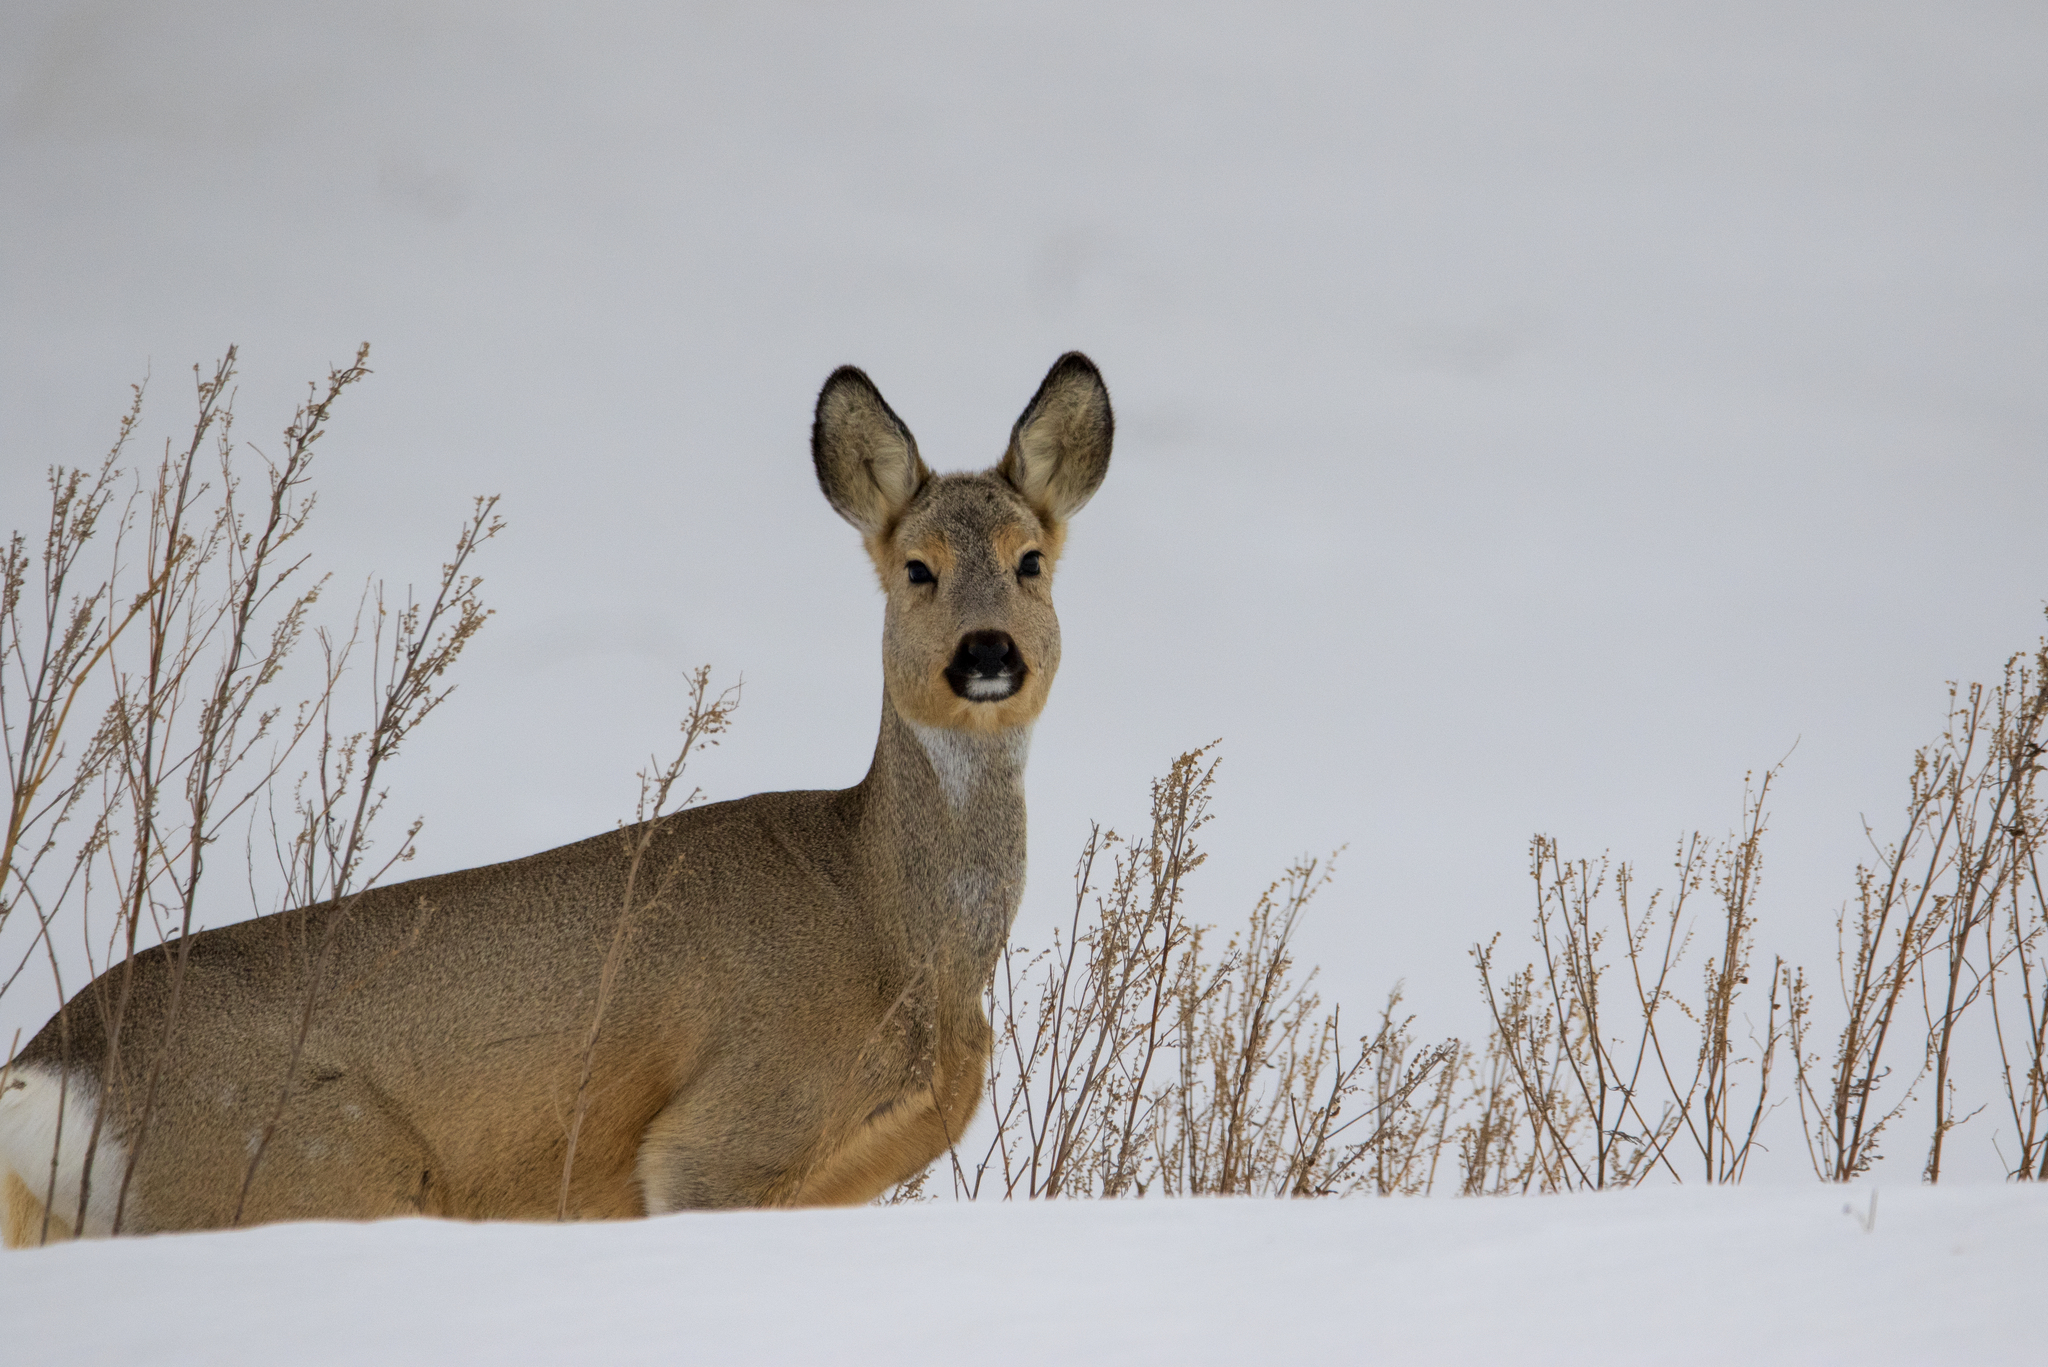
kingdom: Animalia
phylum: Chordata
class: Mammalia
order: Artiodactyla
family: Cervidae
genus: Capreolus
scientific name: Capreolus pygargus
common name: Siberian roe
